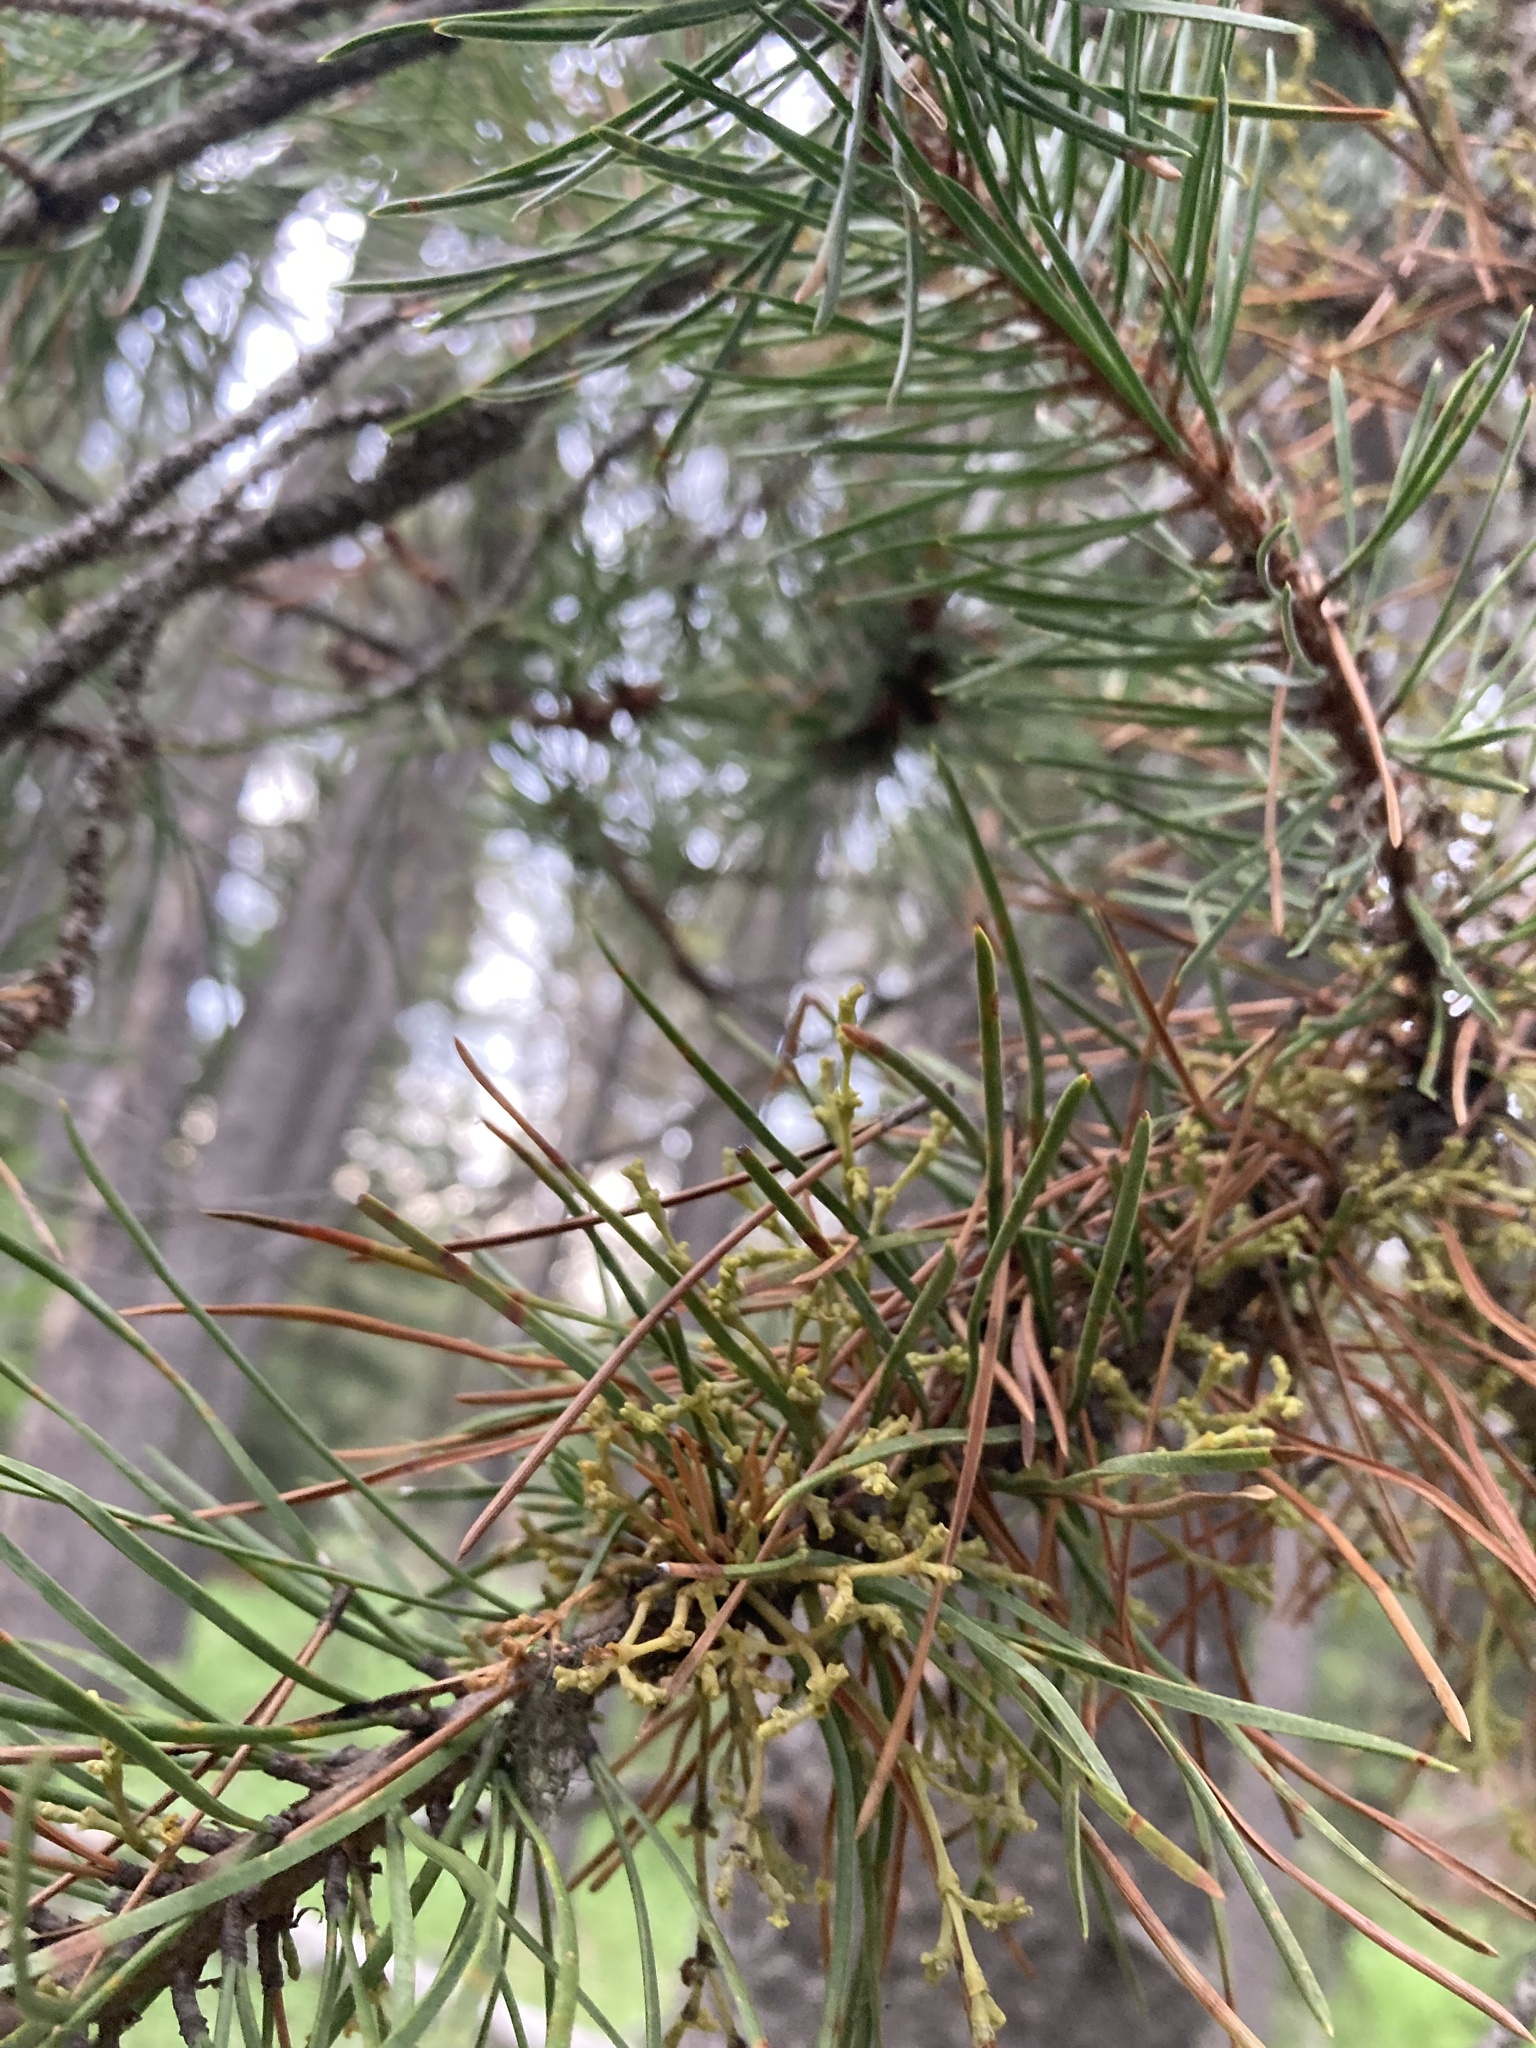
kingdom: Plantae
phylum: Tracheophyta
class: Magnoliopsida
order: Santalales
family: Viscaceae
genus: Arceuthobium
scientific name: Arceuthobium americanum
